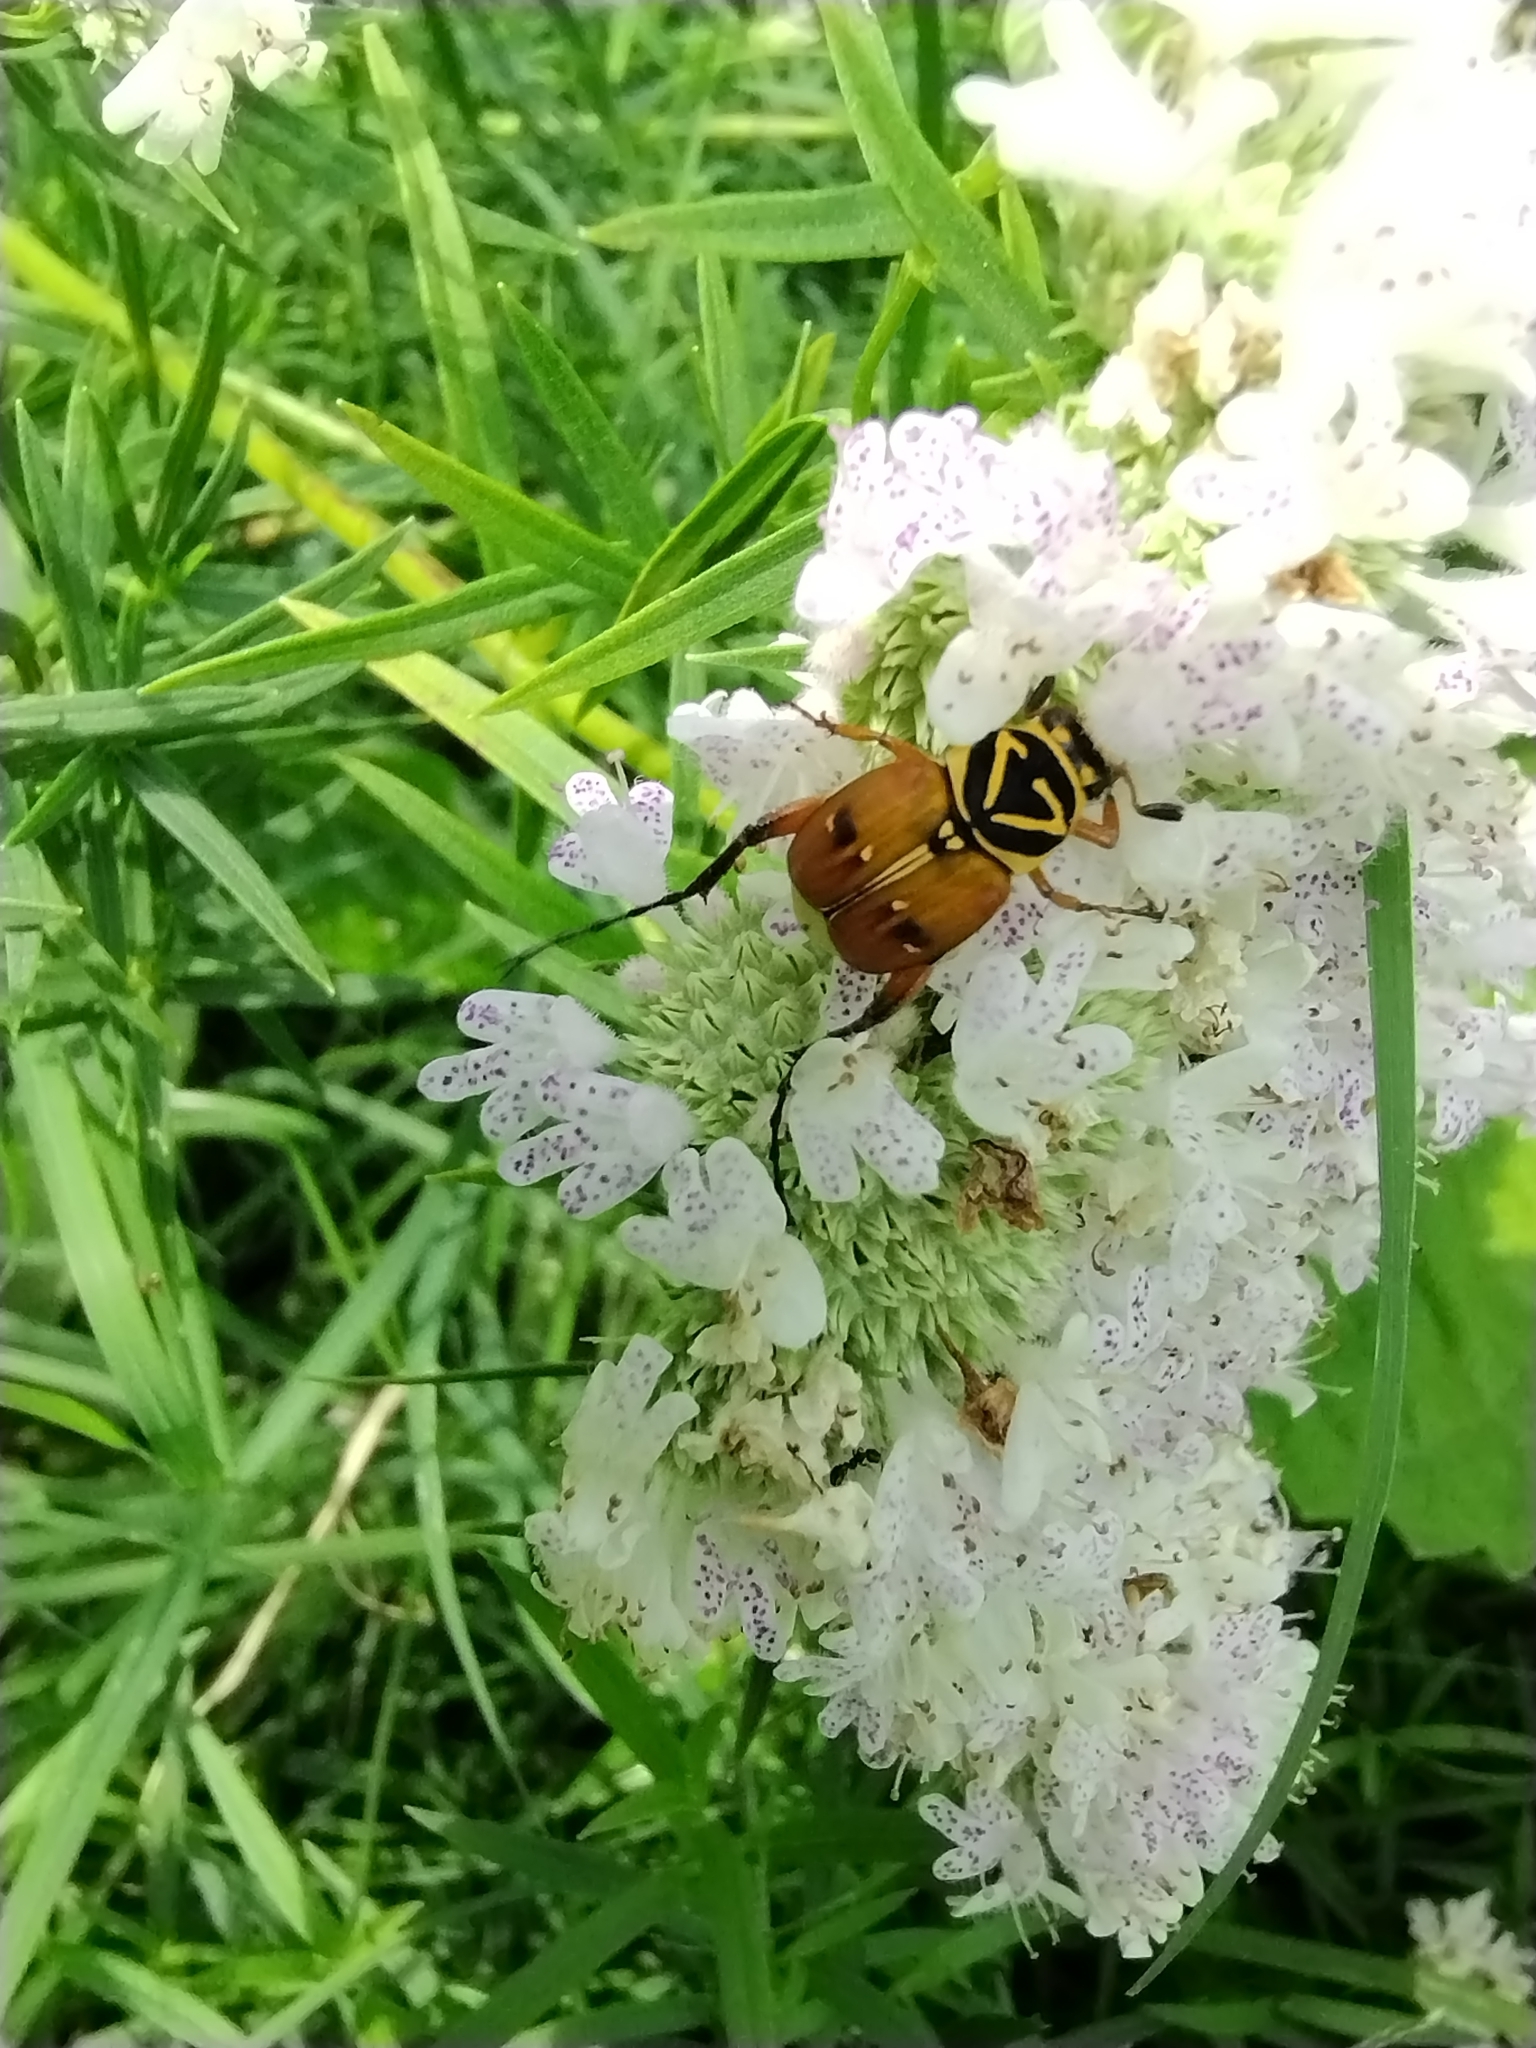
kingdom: Animalia
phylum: Arthropoda
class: Insecta
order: Coleoptera
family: Scarabaeidae
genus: Trigonopeltastes
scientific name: Trigonopeltastes delta
